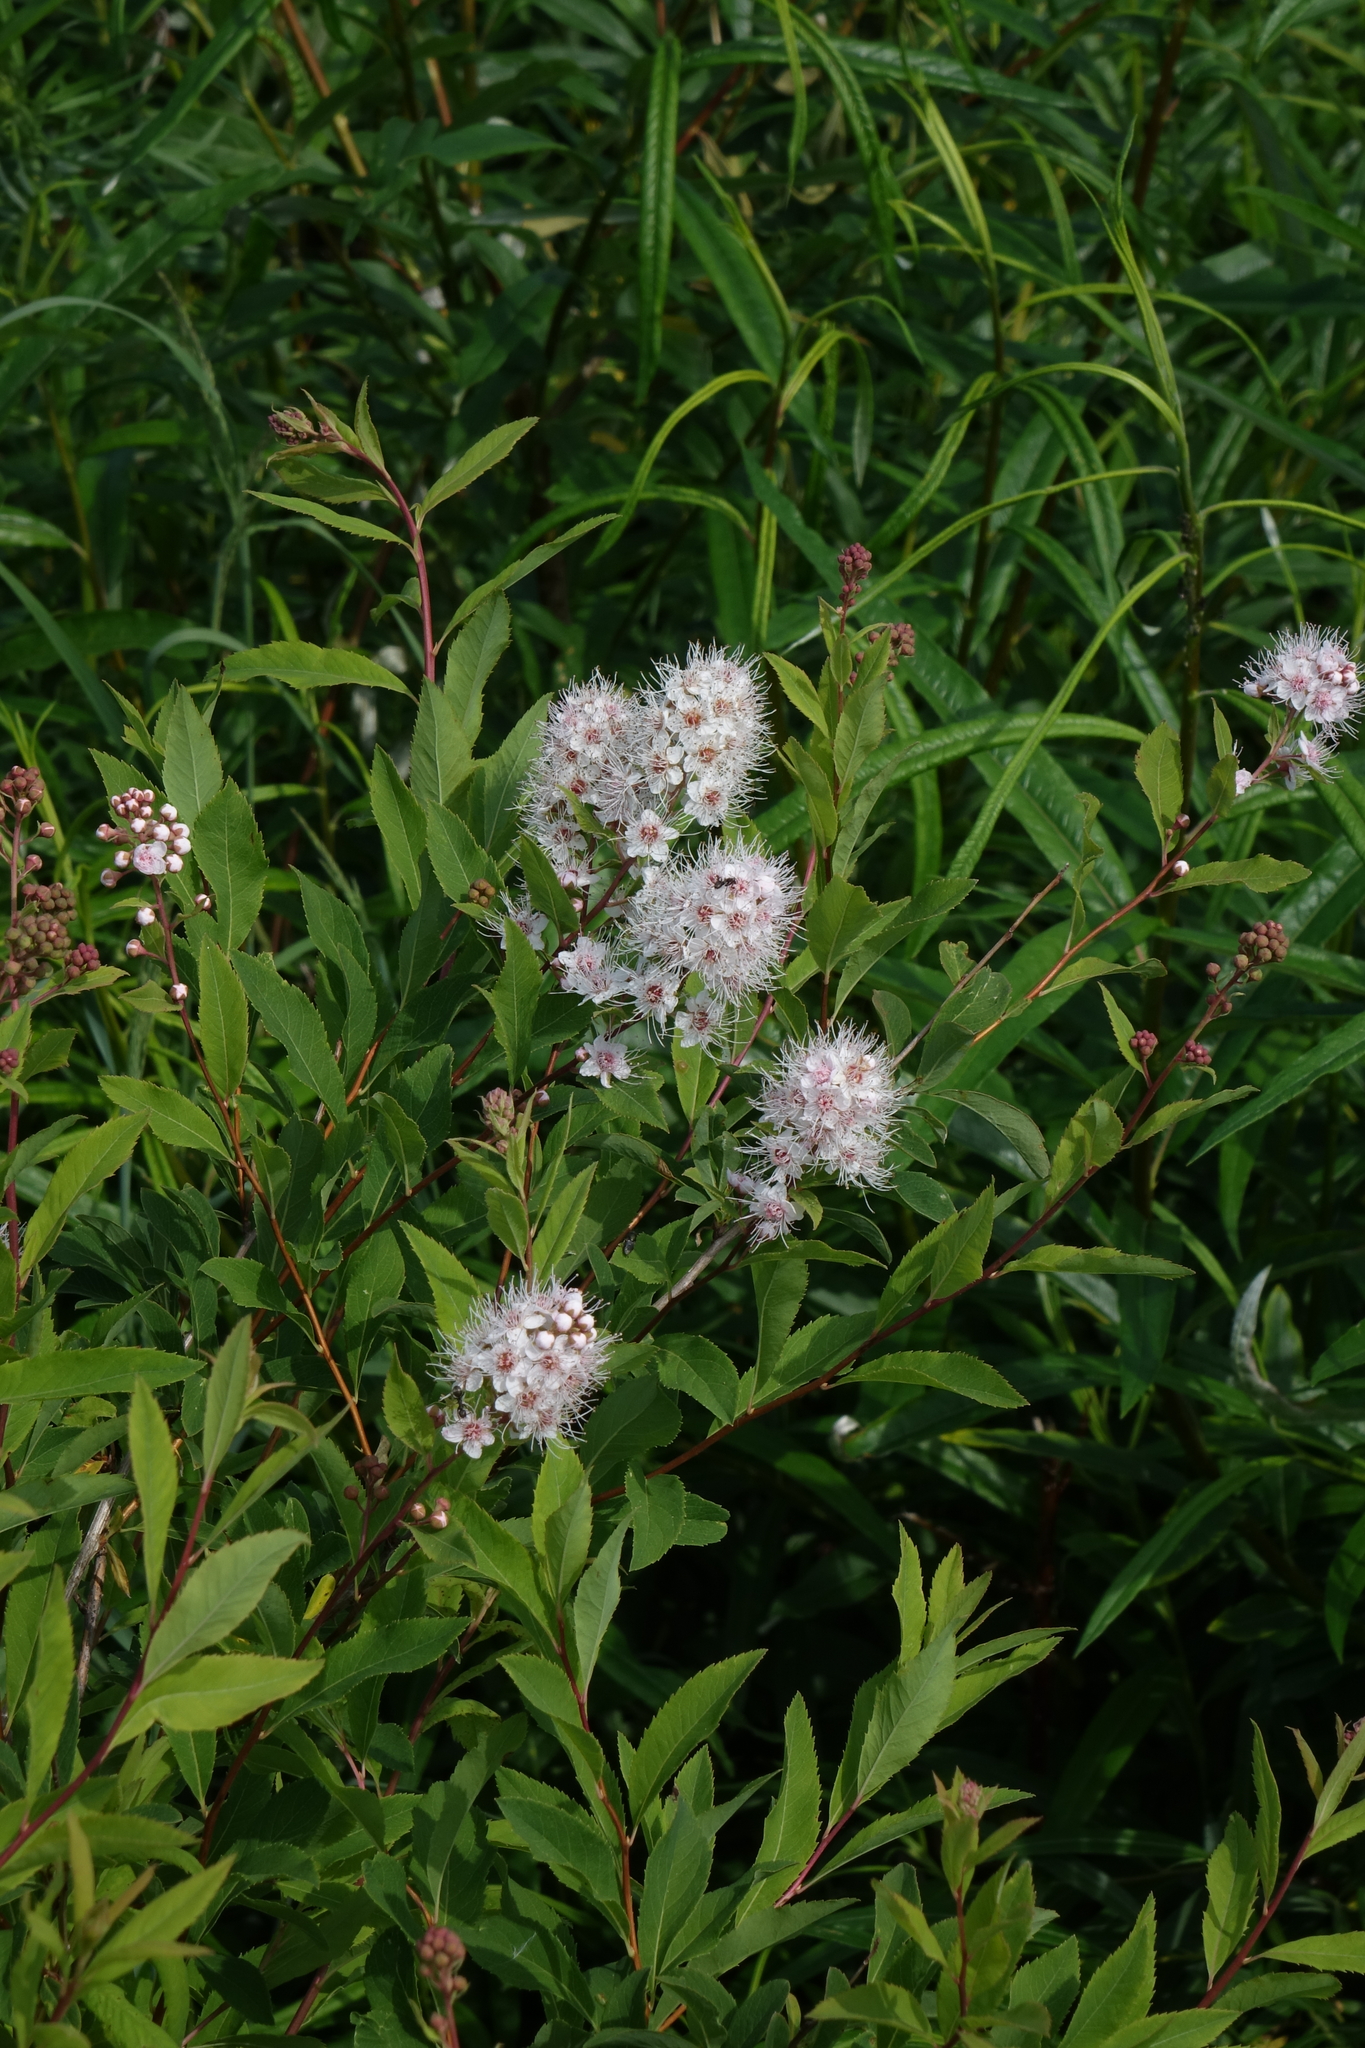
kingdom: Plantae
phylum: Tracheophyta
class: Magnoliopsida
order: Rosales
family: Rosaceae
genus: Spiraea
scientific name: Spiraea salicifolia
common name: Bridewort
